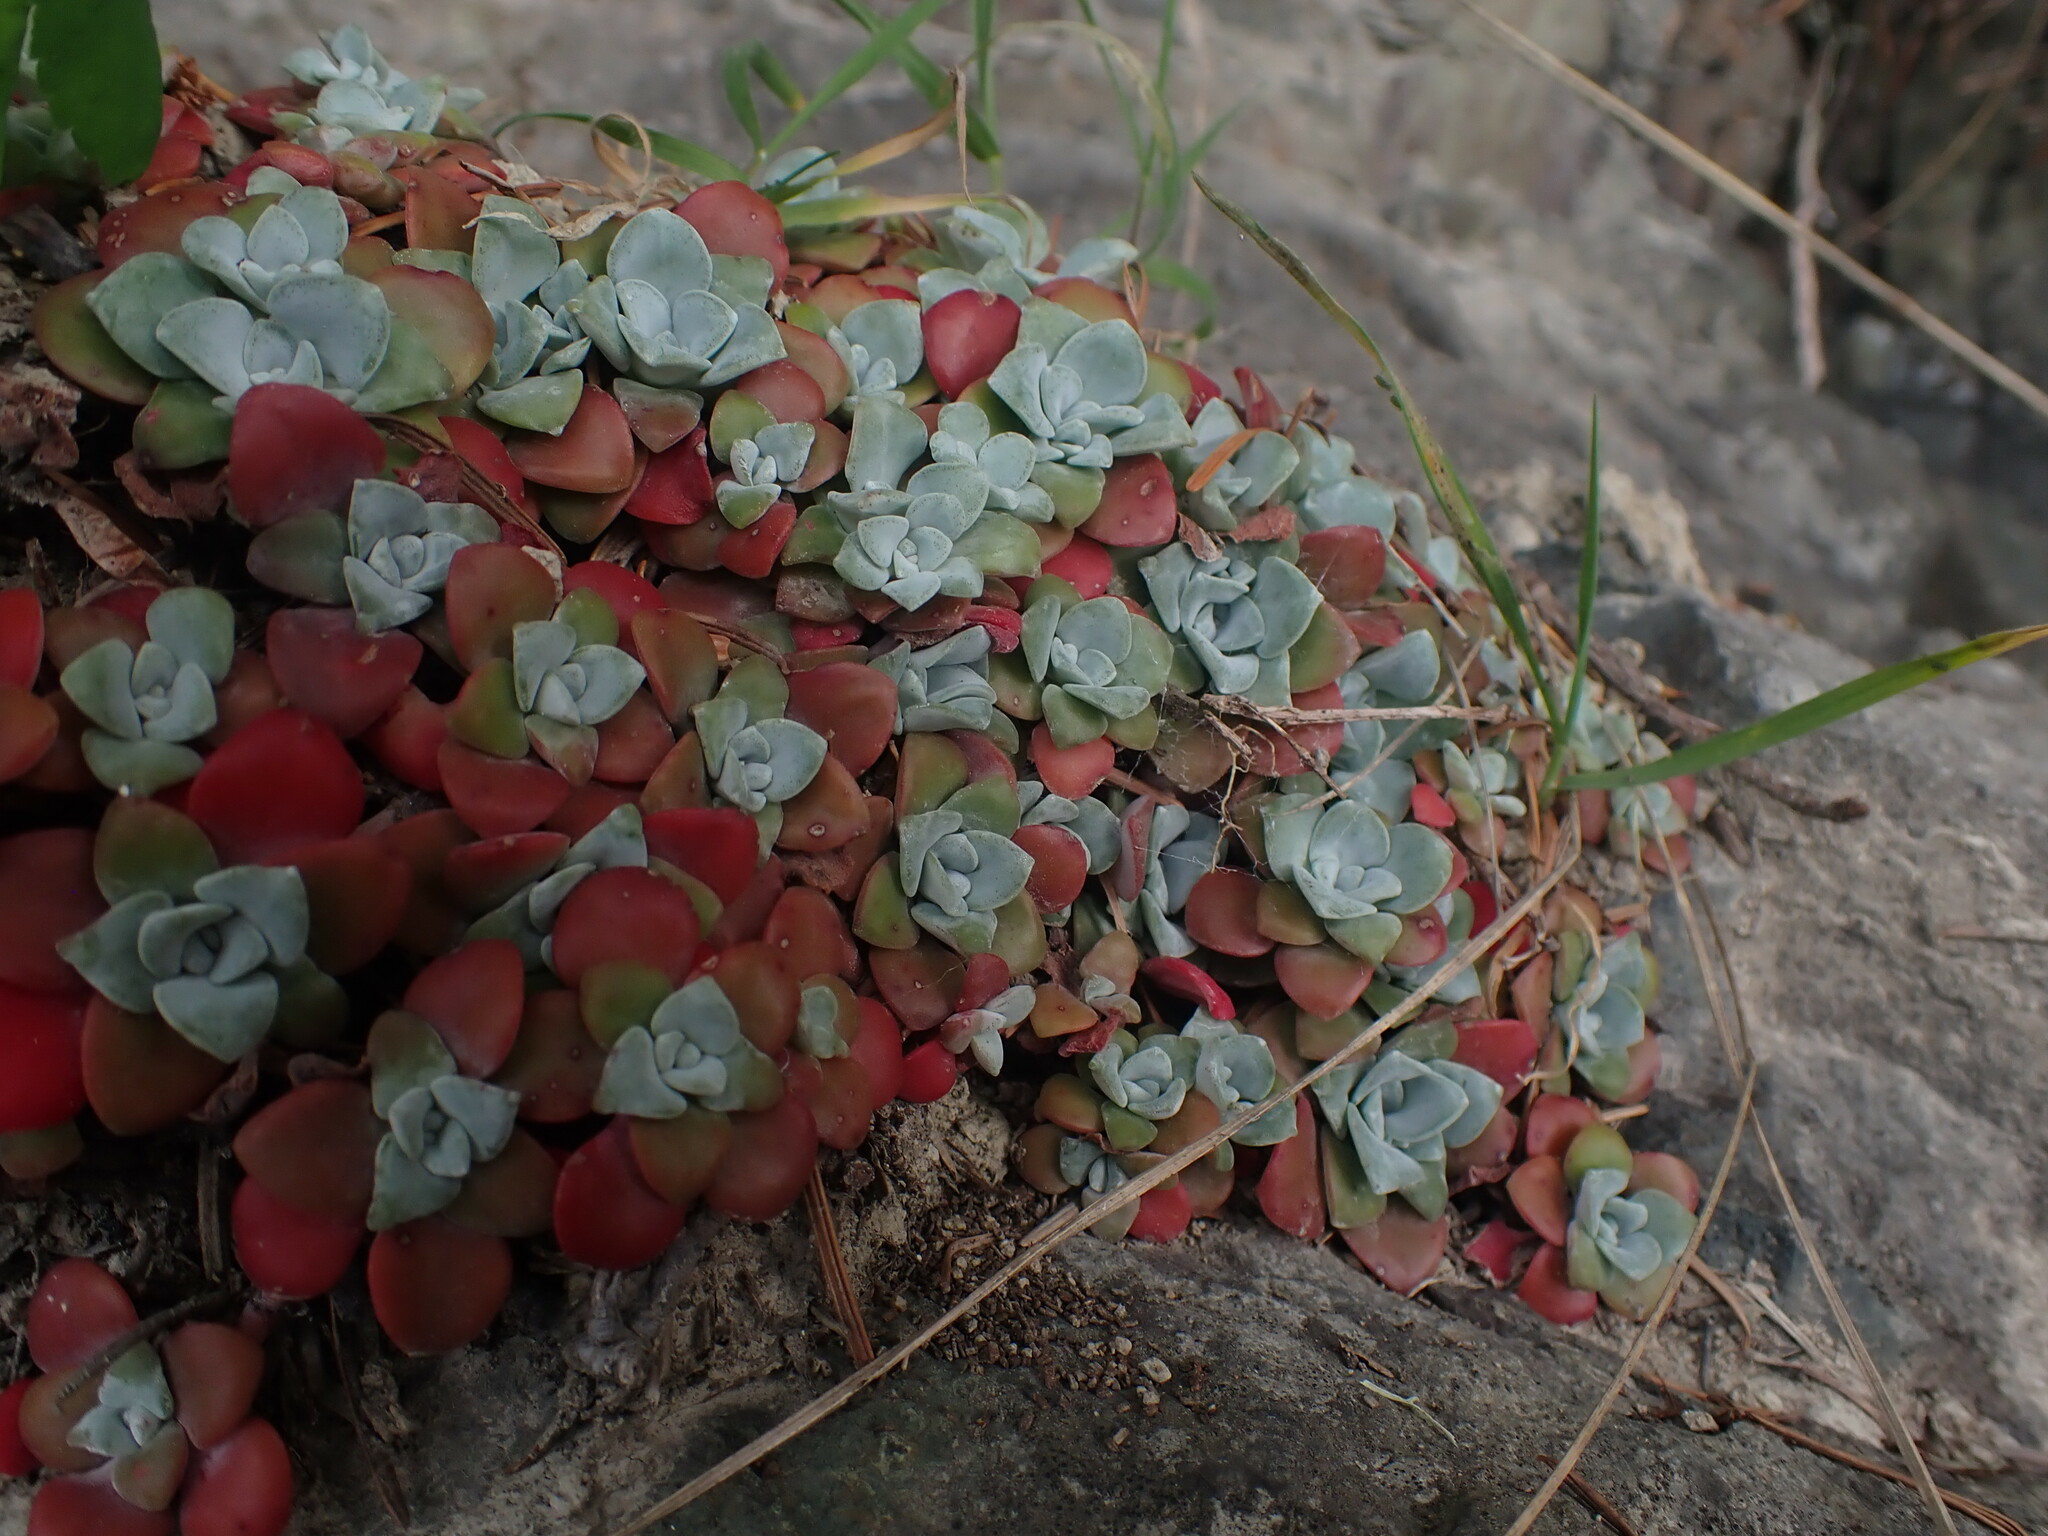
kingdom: Plantae
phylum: Tracheophyta
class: Magnoliopsida
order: Saxifragales
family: Crassulaceae
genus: Sedum
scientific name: Sedum spathulifolium
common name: Colorado stonecrop
